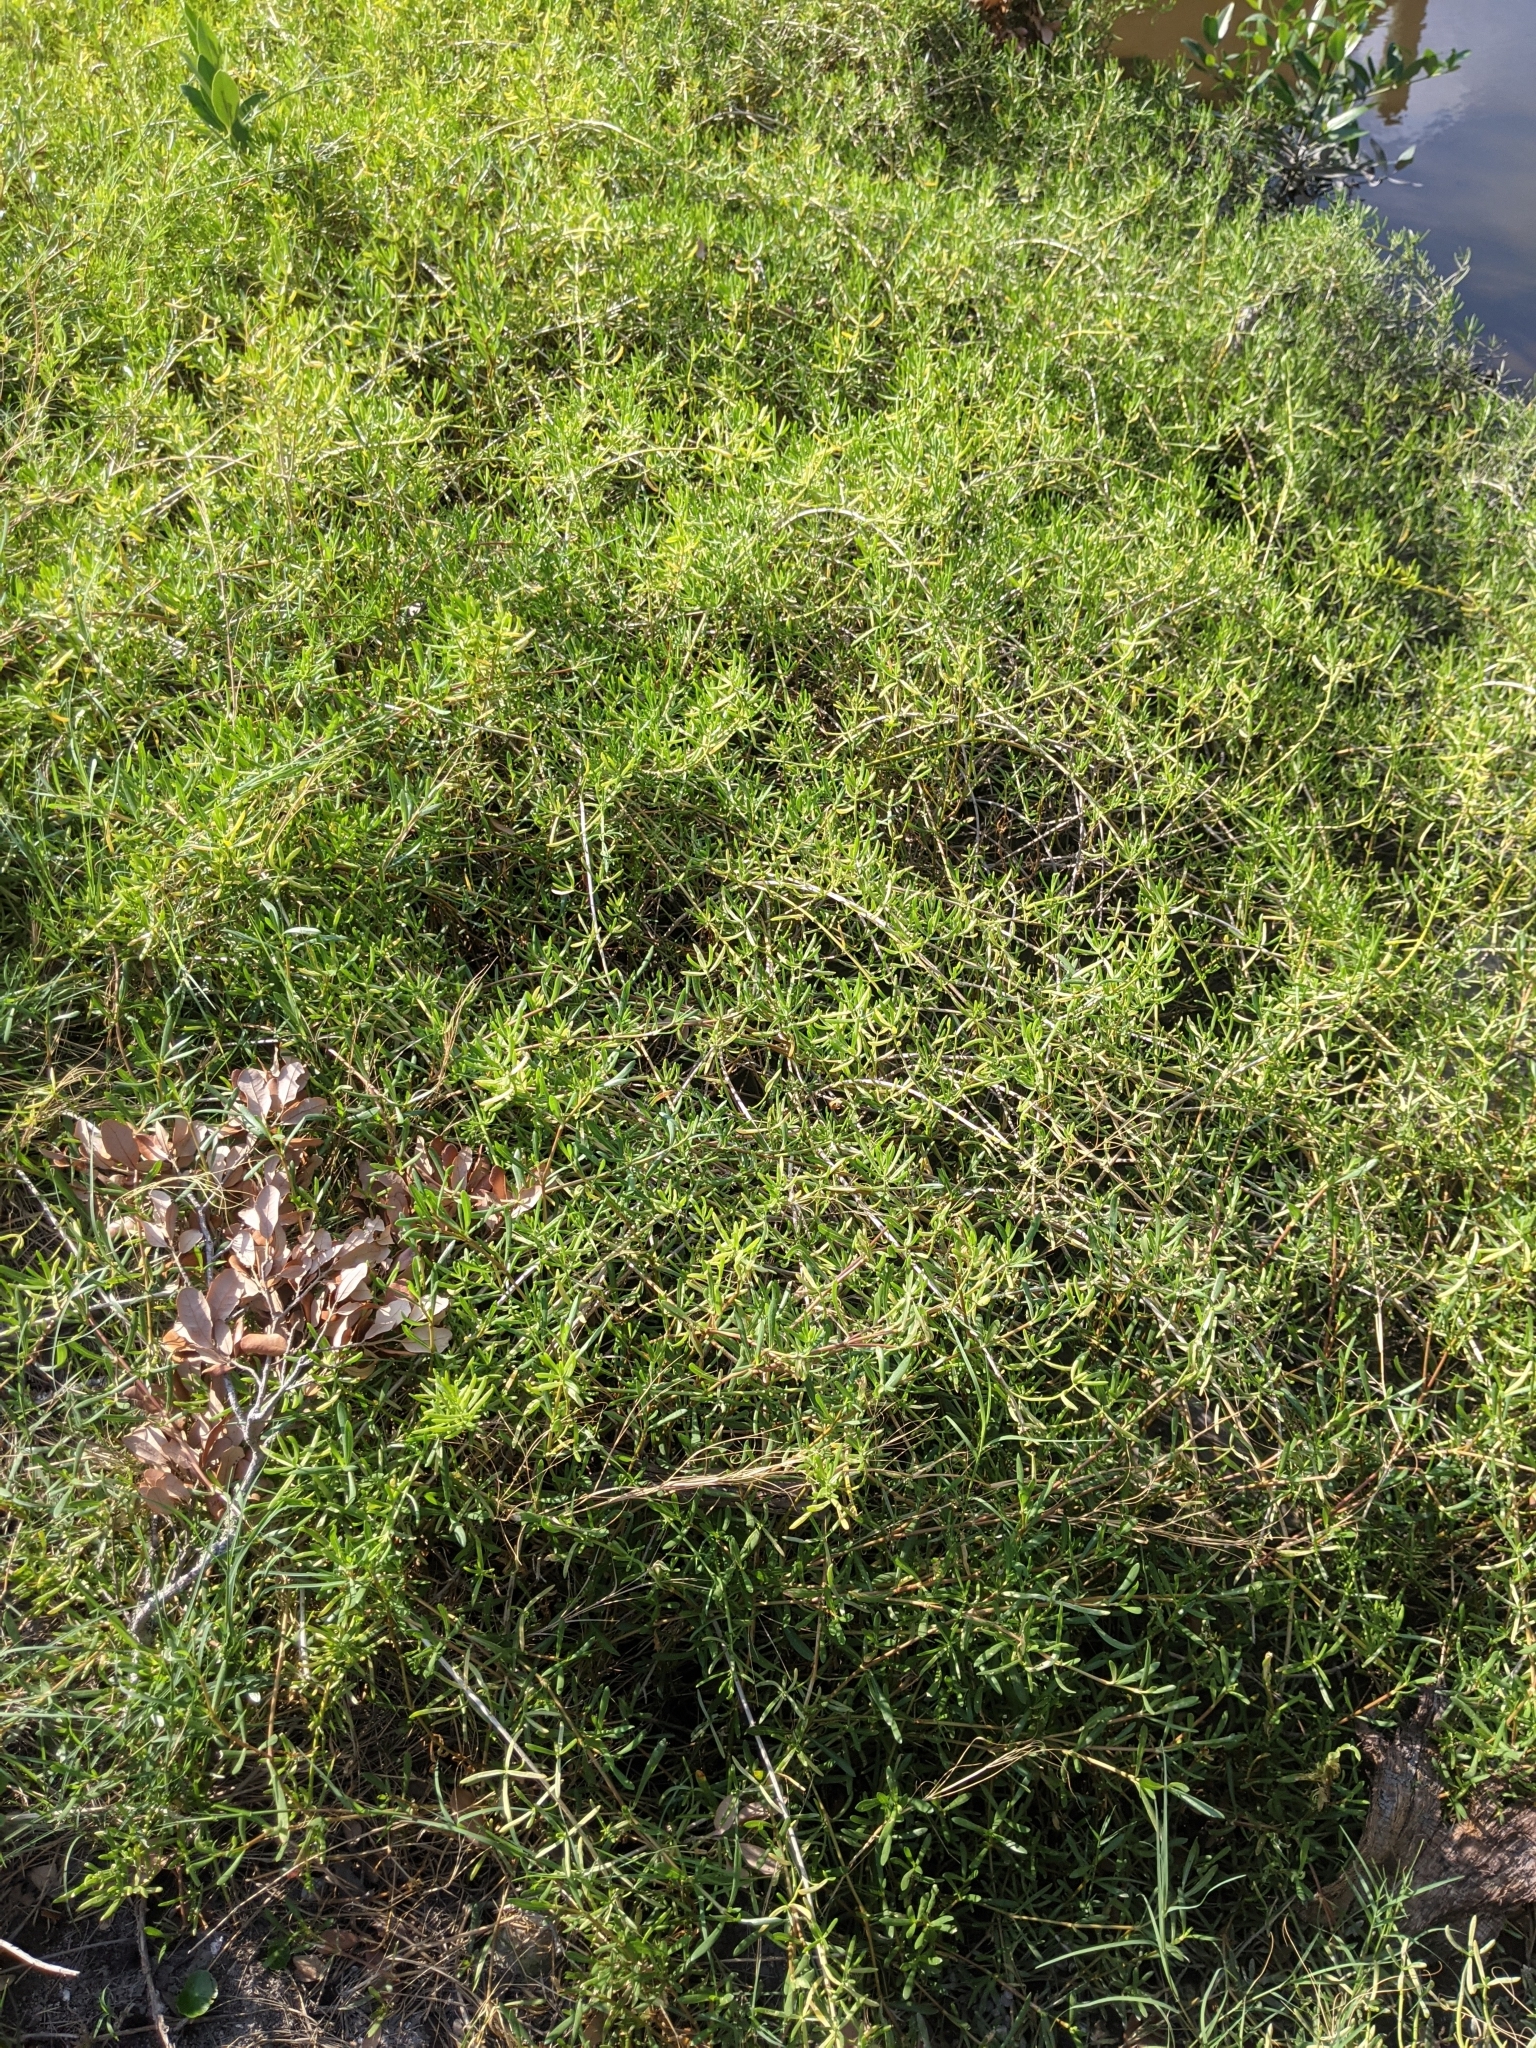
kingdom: Plantae
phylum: Tracheophyta
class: Magnoliopsida
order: Brassicales
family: Bataceae
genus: Batis
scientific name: Batis maritima
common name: Turtleweed
